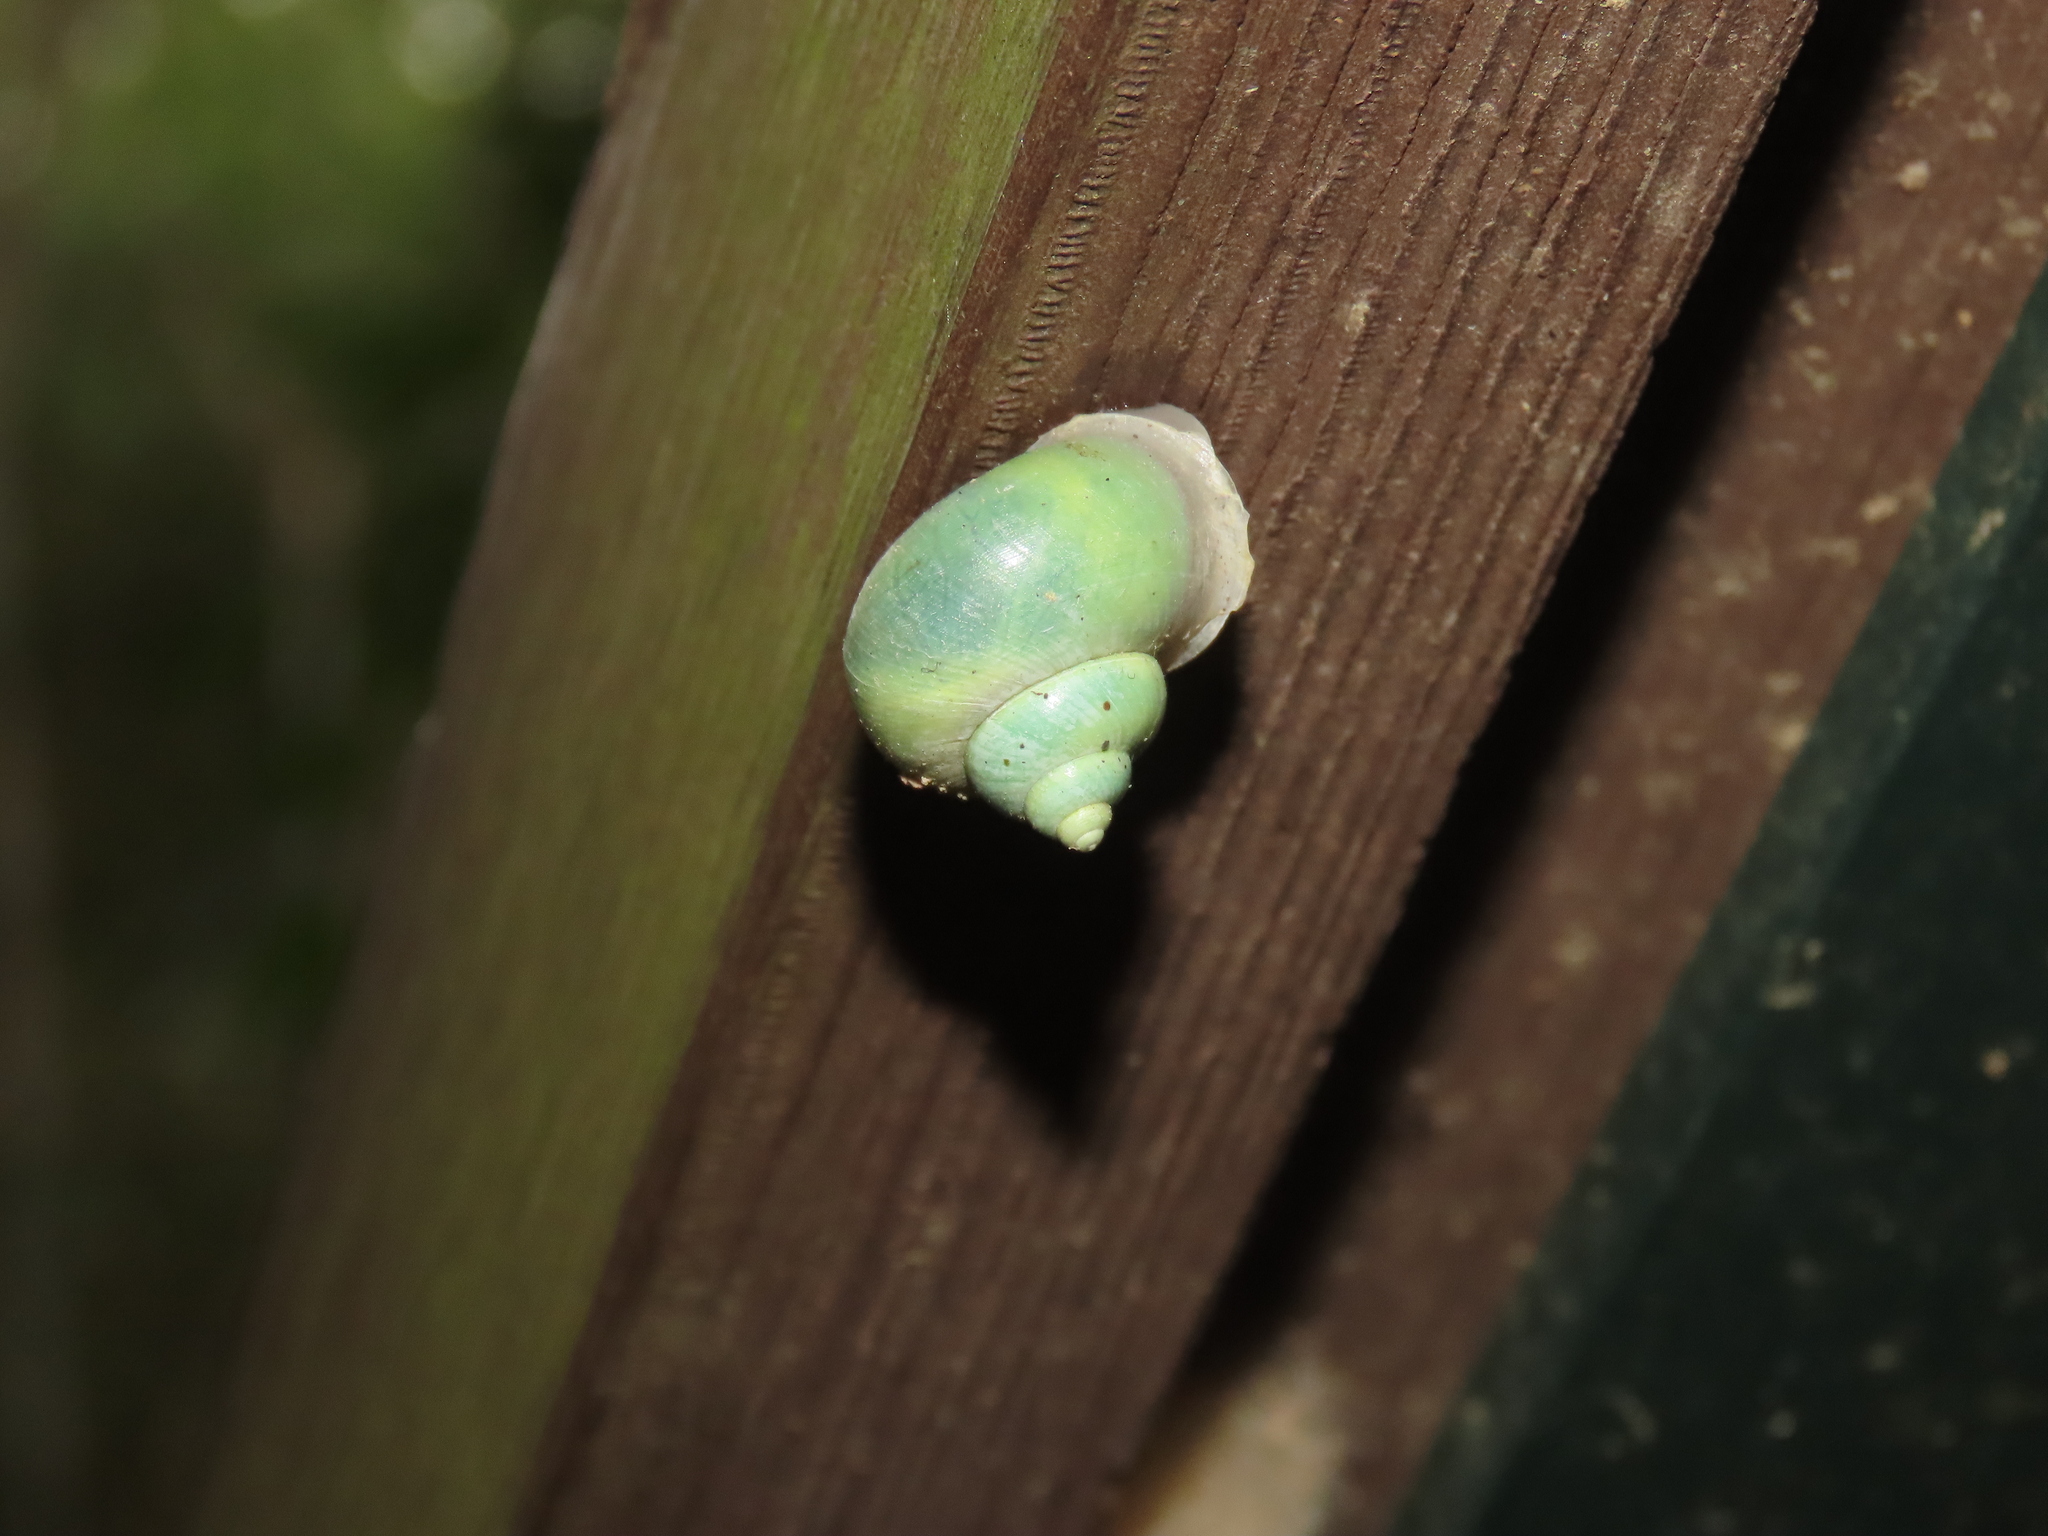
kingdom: Animalia
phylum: Mollusca
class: Gastropoda
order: Architaenioglossa
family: Cyclophoridae
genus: Leptopoma
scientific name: Leptopoma nitidum
